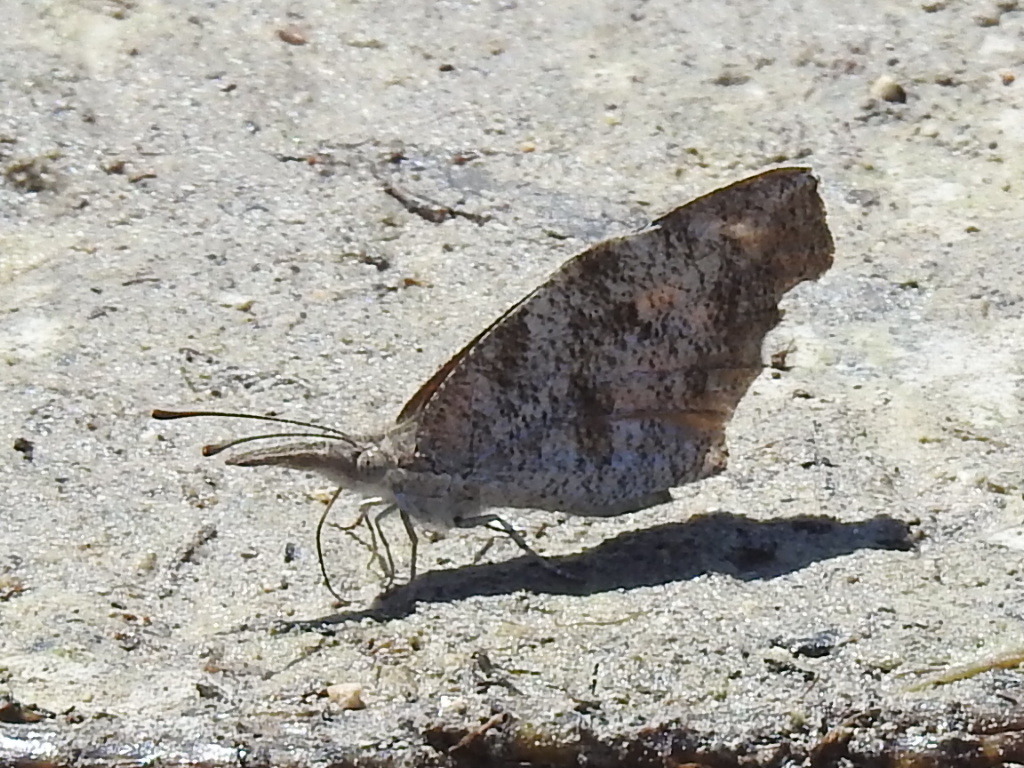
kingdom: Animalia
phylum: Arthropoda
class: Insecta
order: Lepidoptera
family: Nymphalidae
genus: Libytheana
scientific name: Libytheana carinenta
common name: American snout
